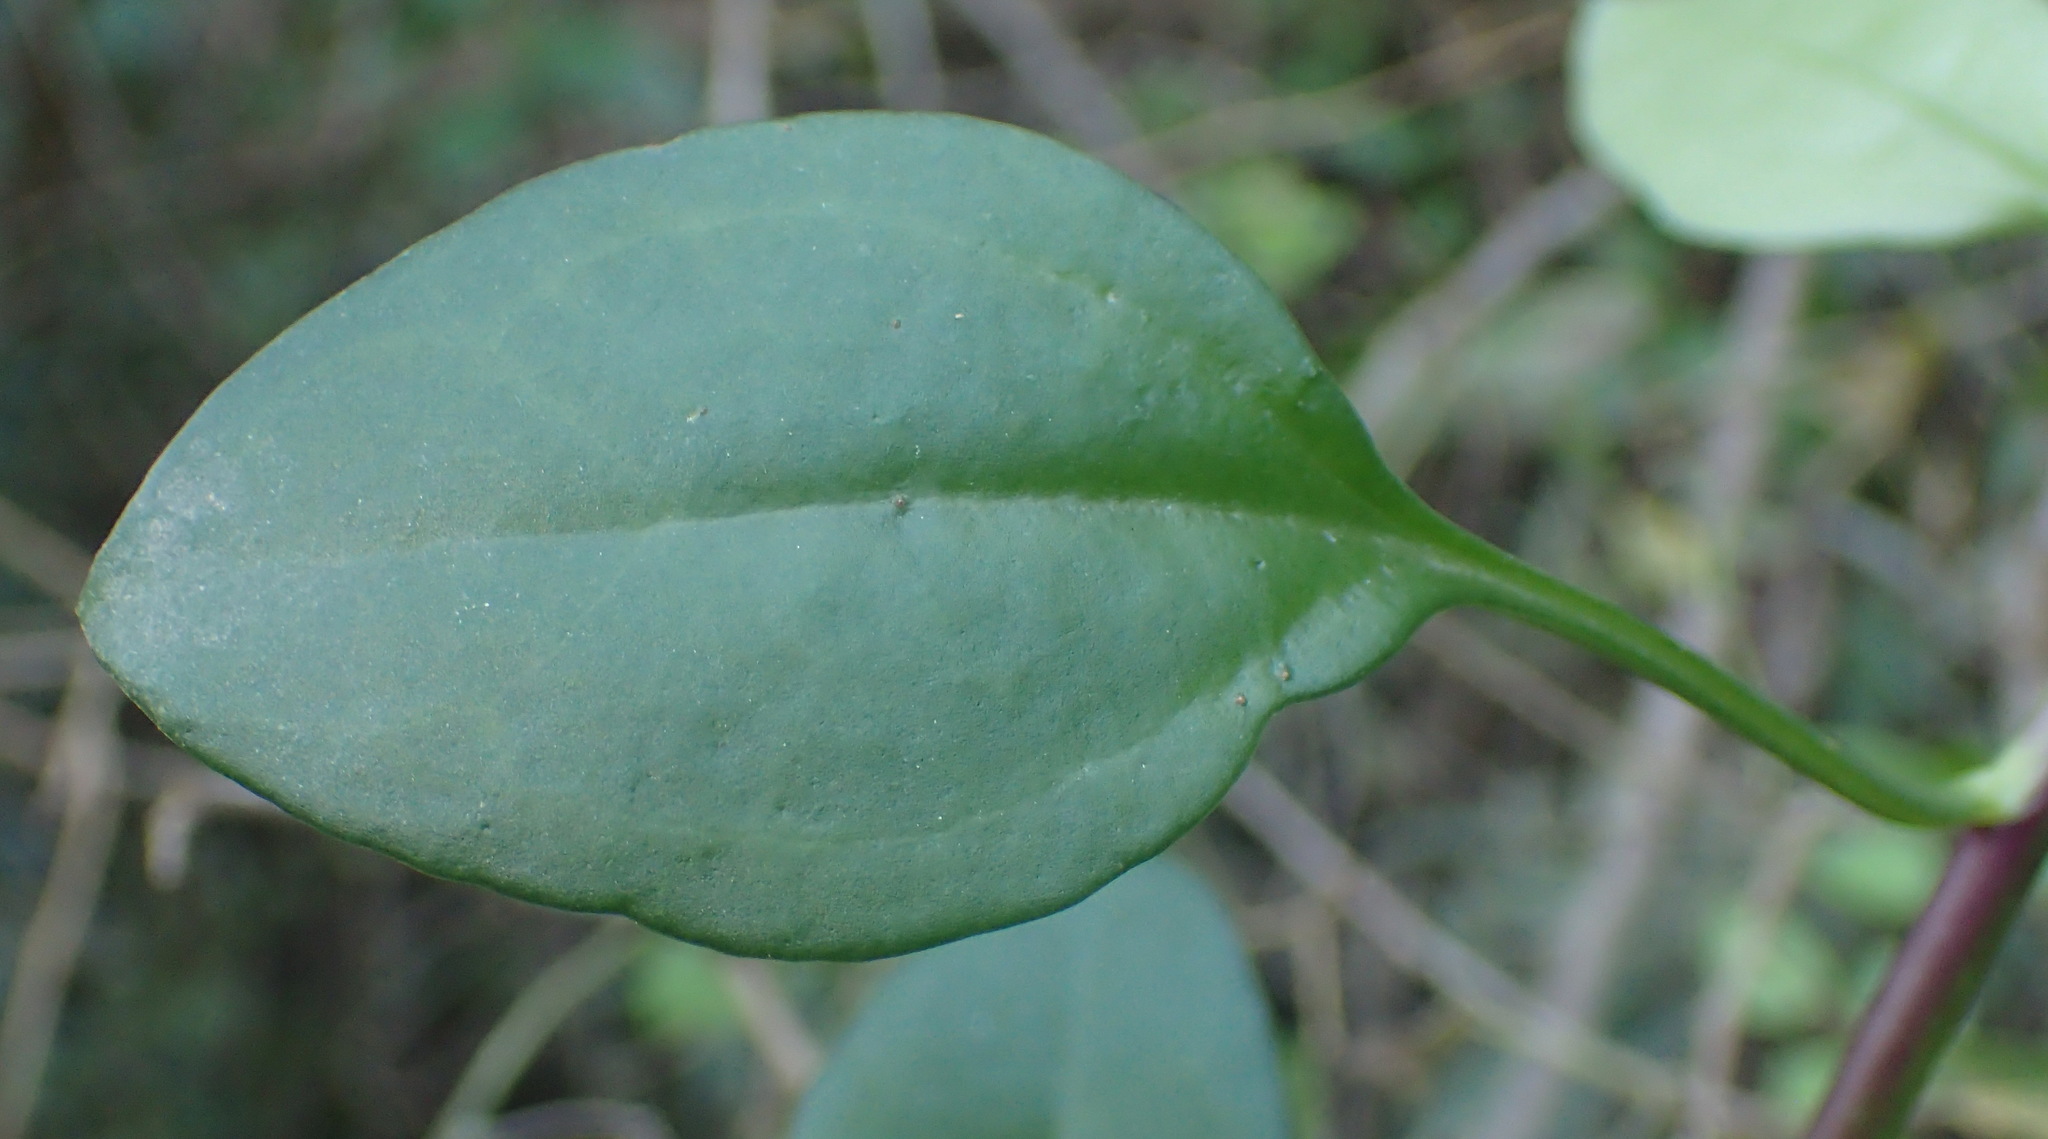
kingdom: Plantae
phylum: Tracheophyta
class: Magnoliopsida
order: Asterales
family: Asteraceae
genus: Senecio
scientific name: Senecio angulatus
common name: Climbing groundsel
